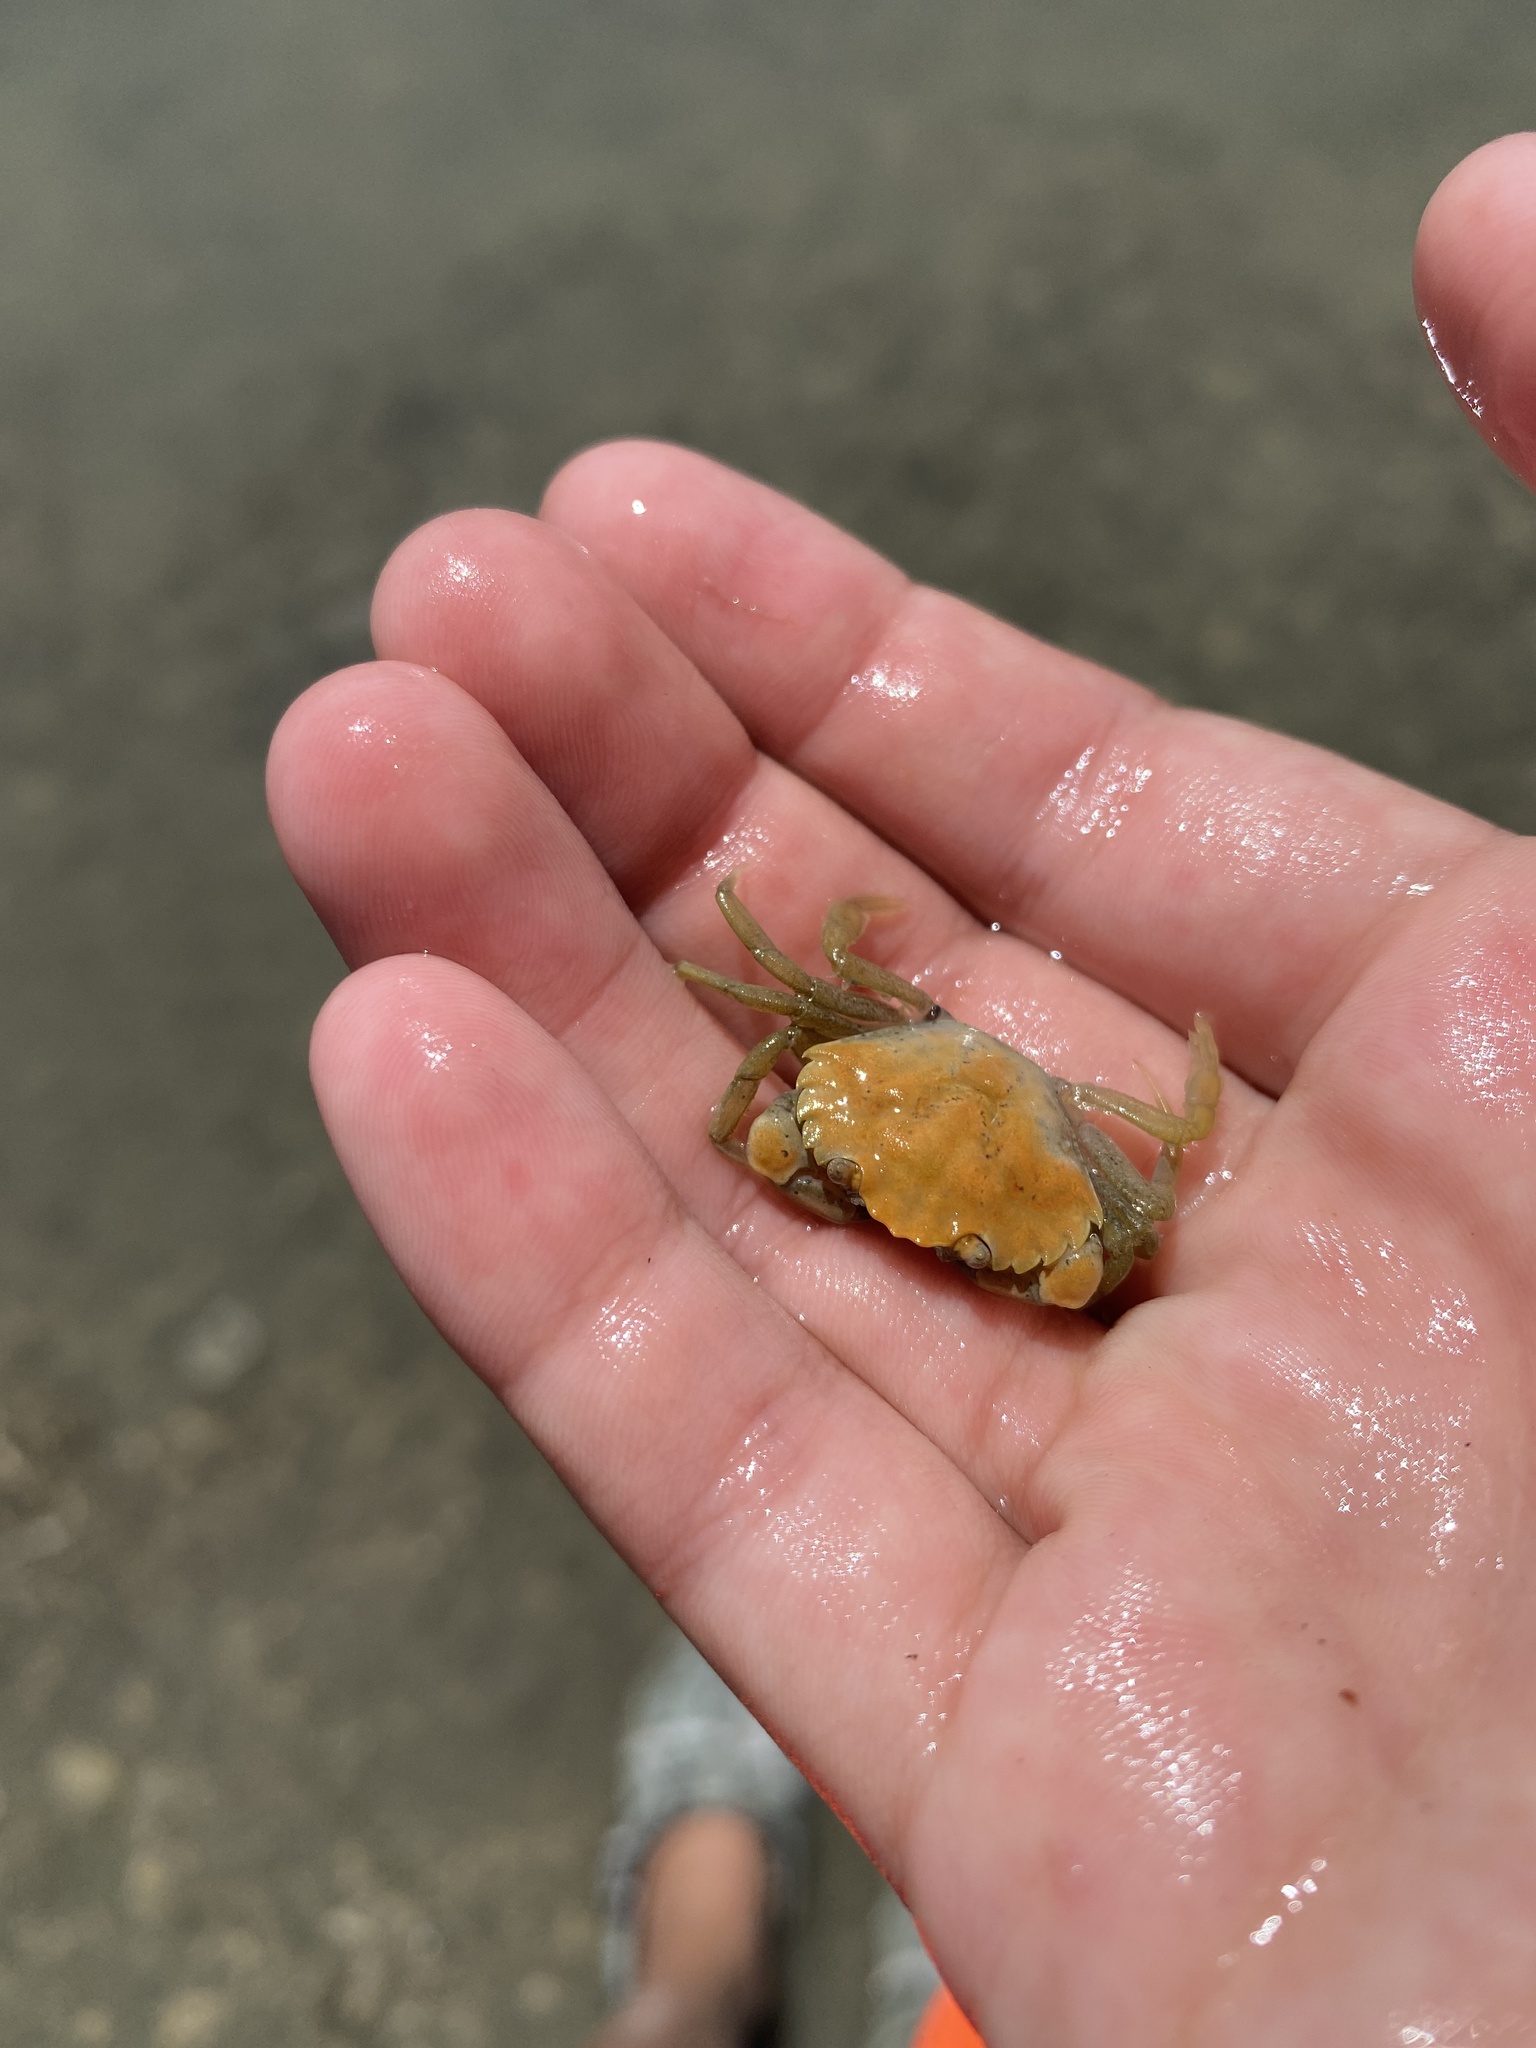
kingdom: Animalia
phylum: Arthropoda
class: Malacostraca
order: Decapoda
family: Carcinidae
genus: Carcinus
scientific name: Carcinus maenas
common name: European green crab
